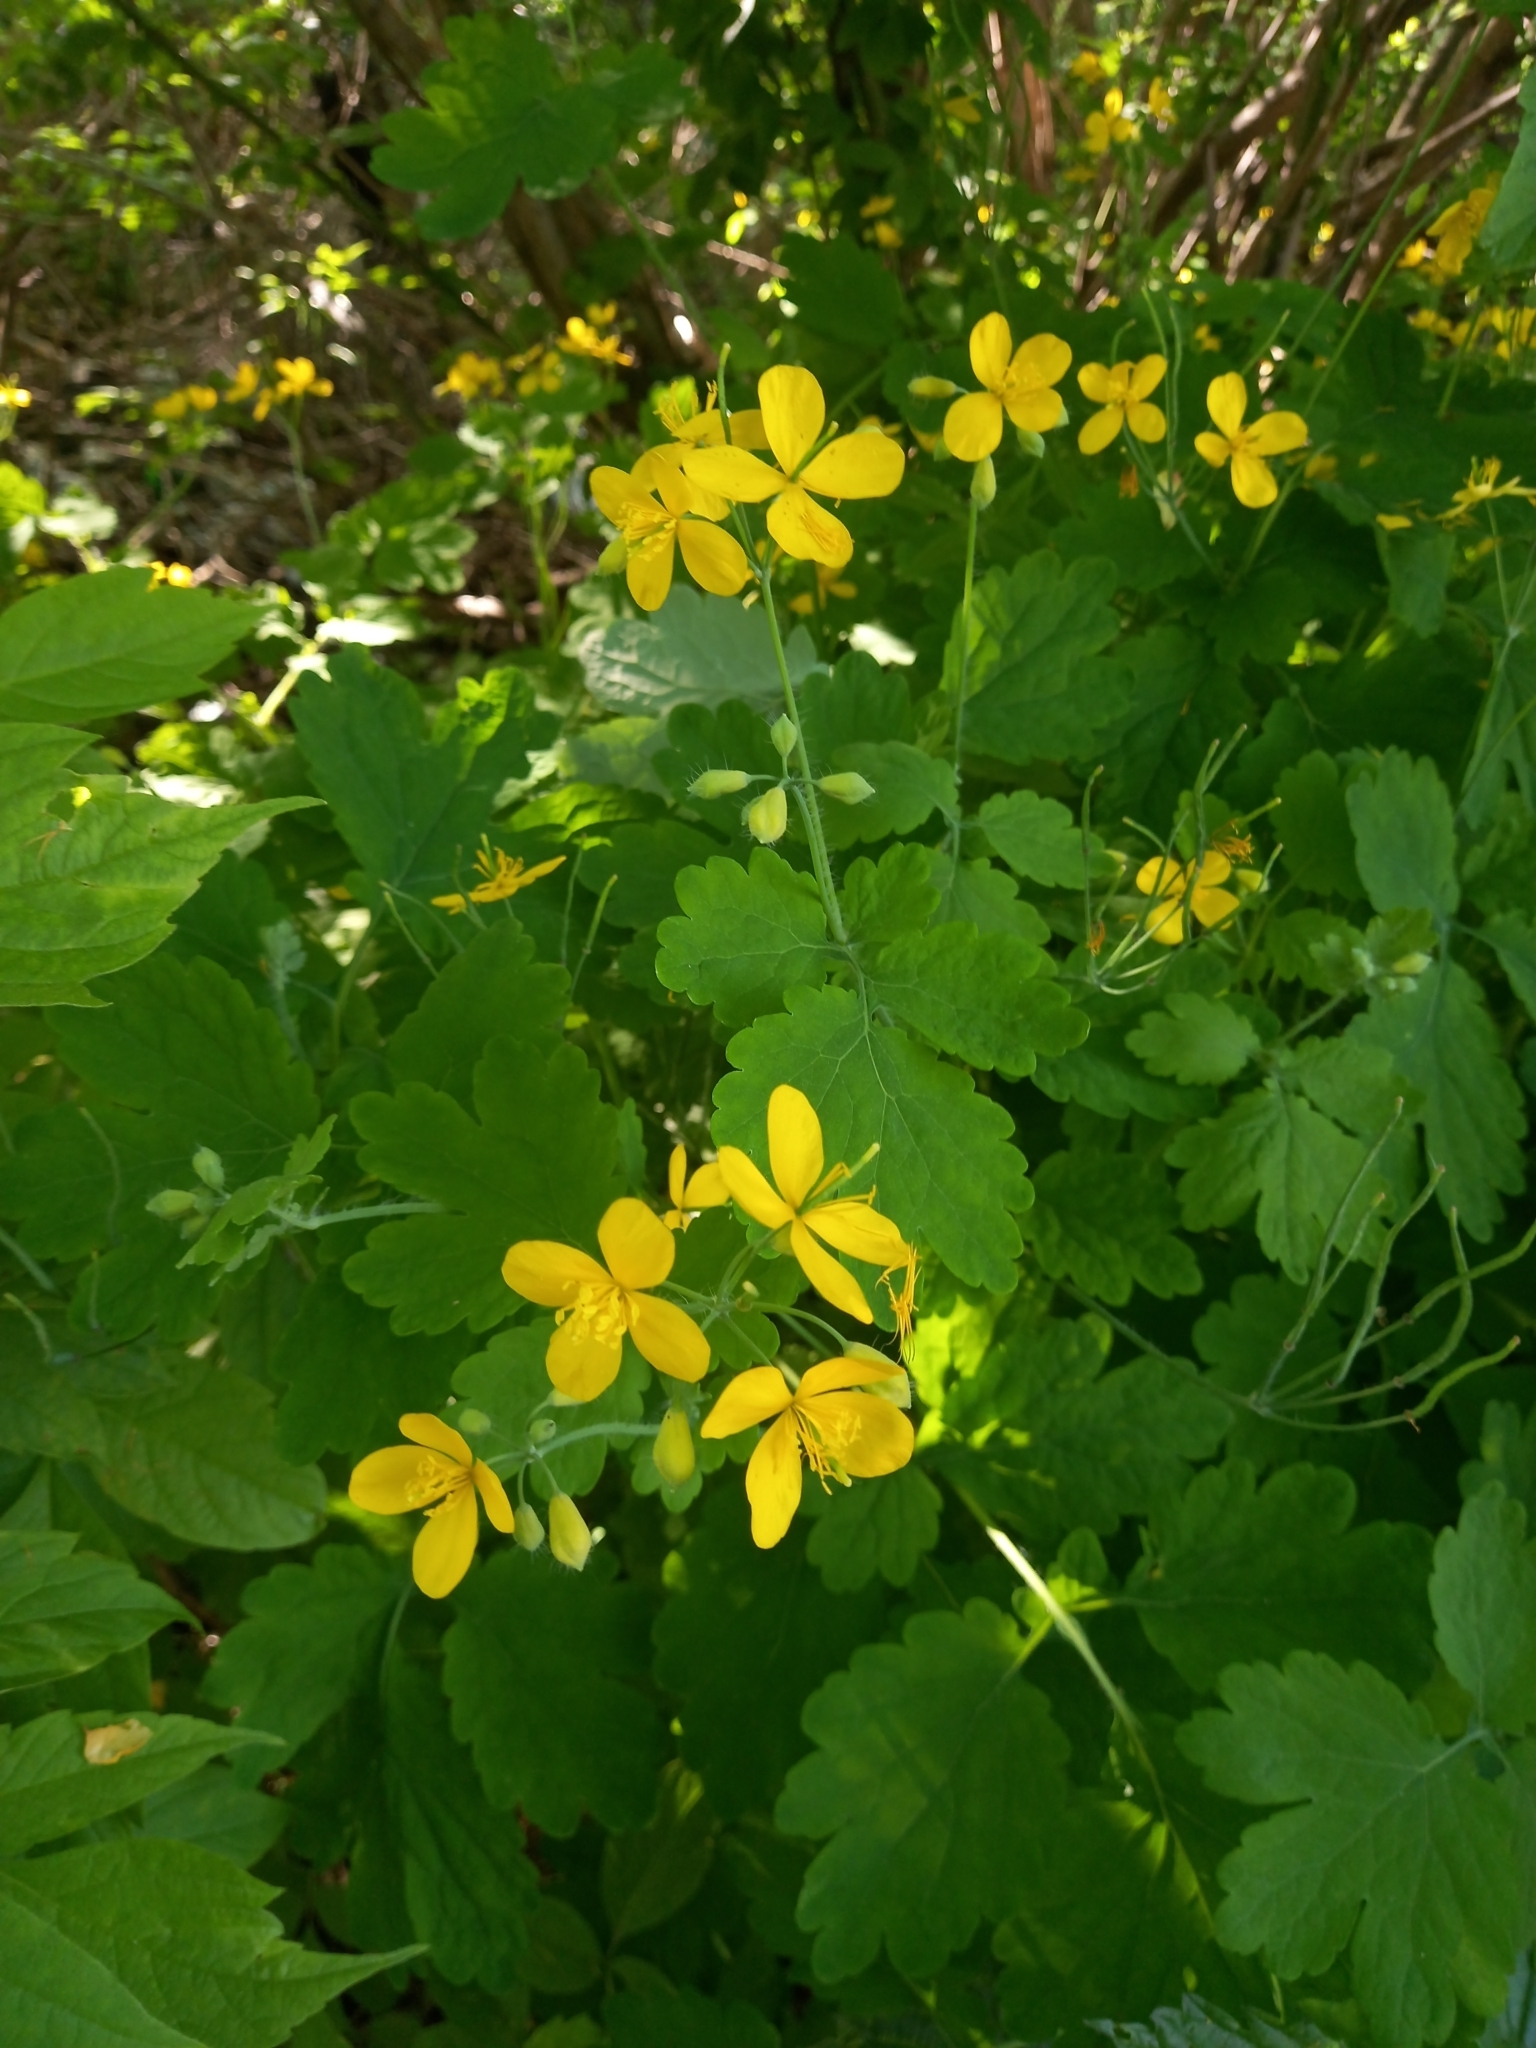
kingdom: Plantae
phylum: Tracheophyta
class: Magnoliopsida
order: Ranunculales
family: Papaveraceae
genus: Chelidonium
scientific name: Chelidonium majus
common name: Greater celandine
